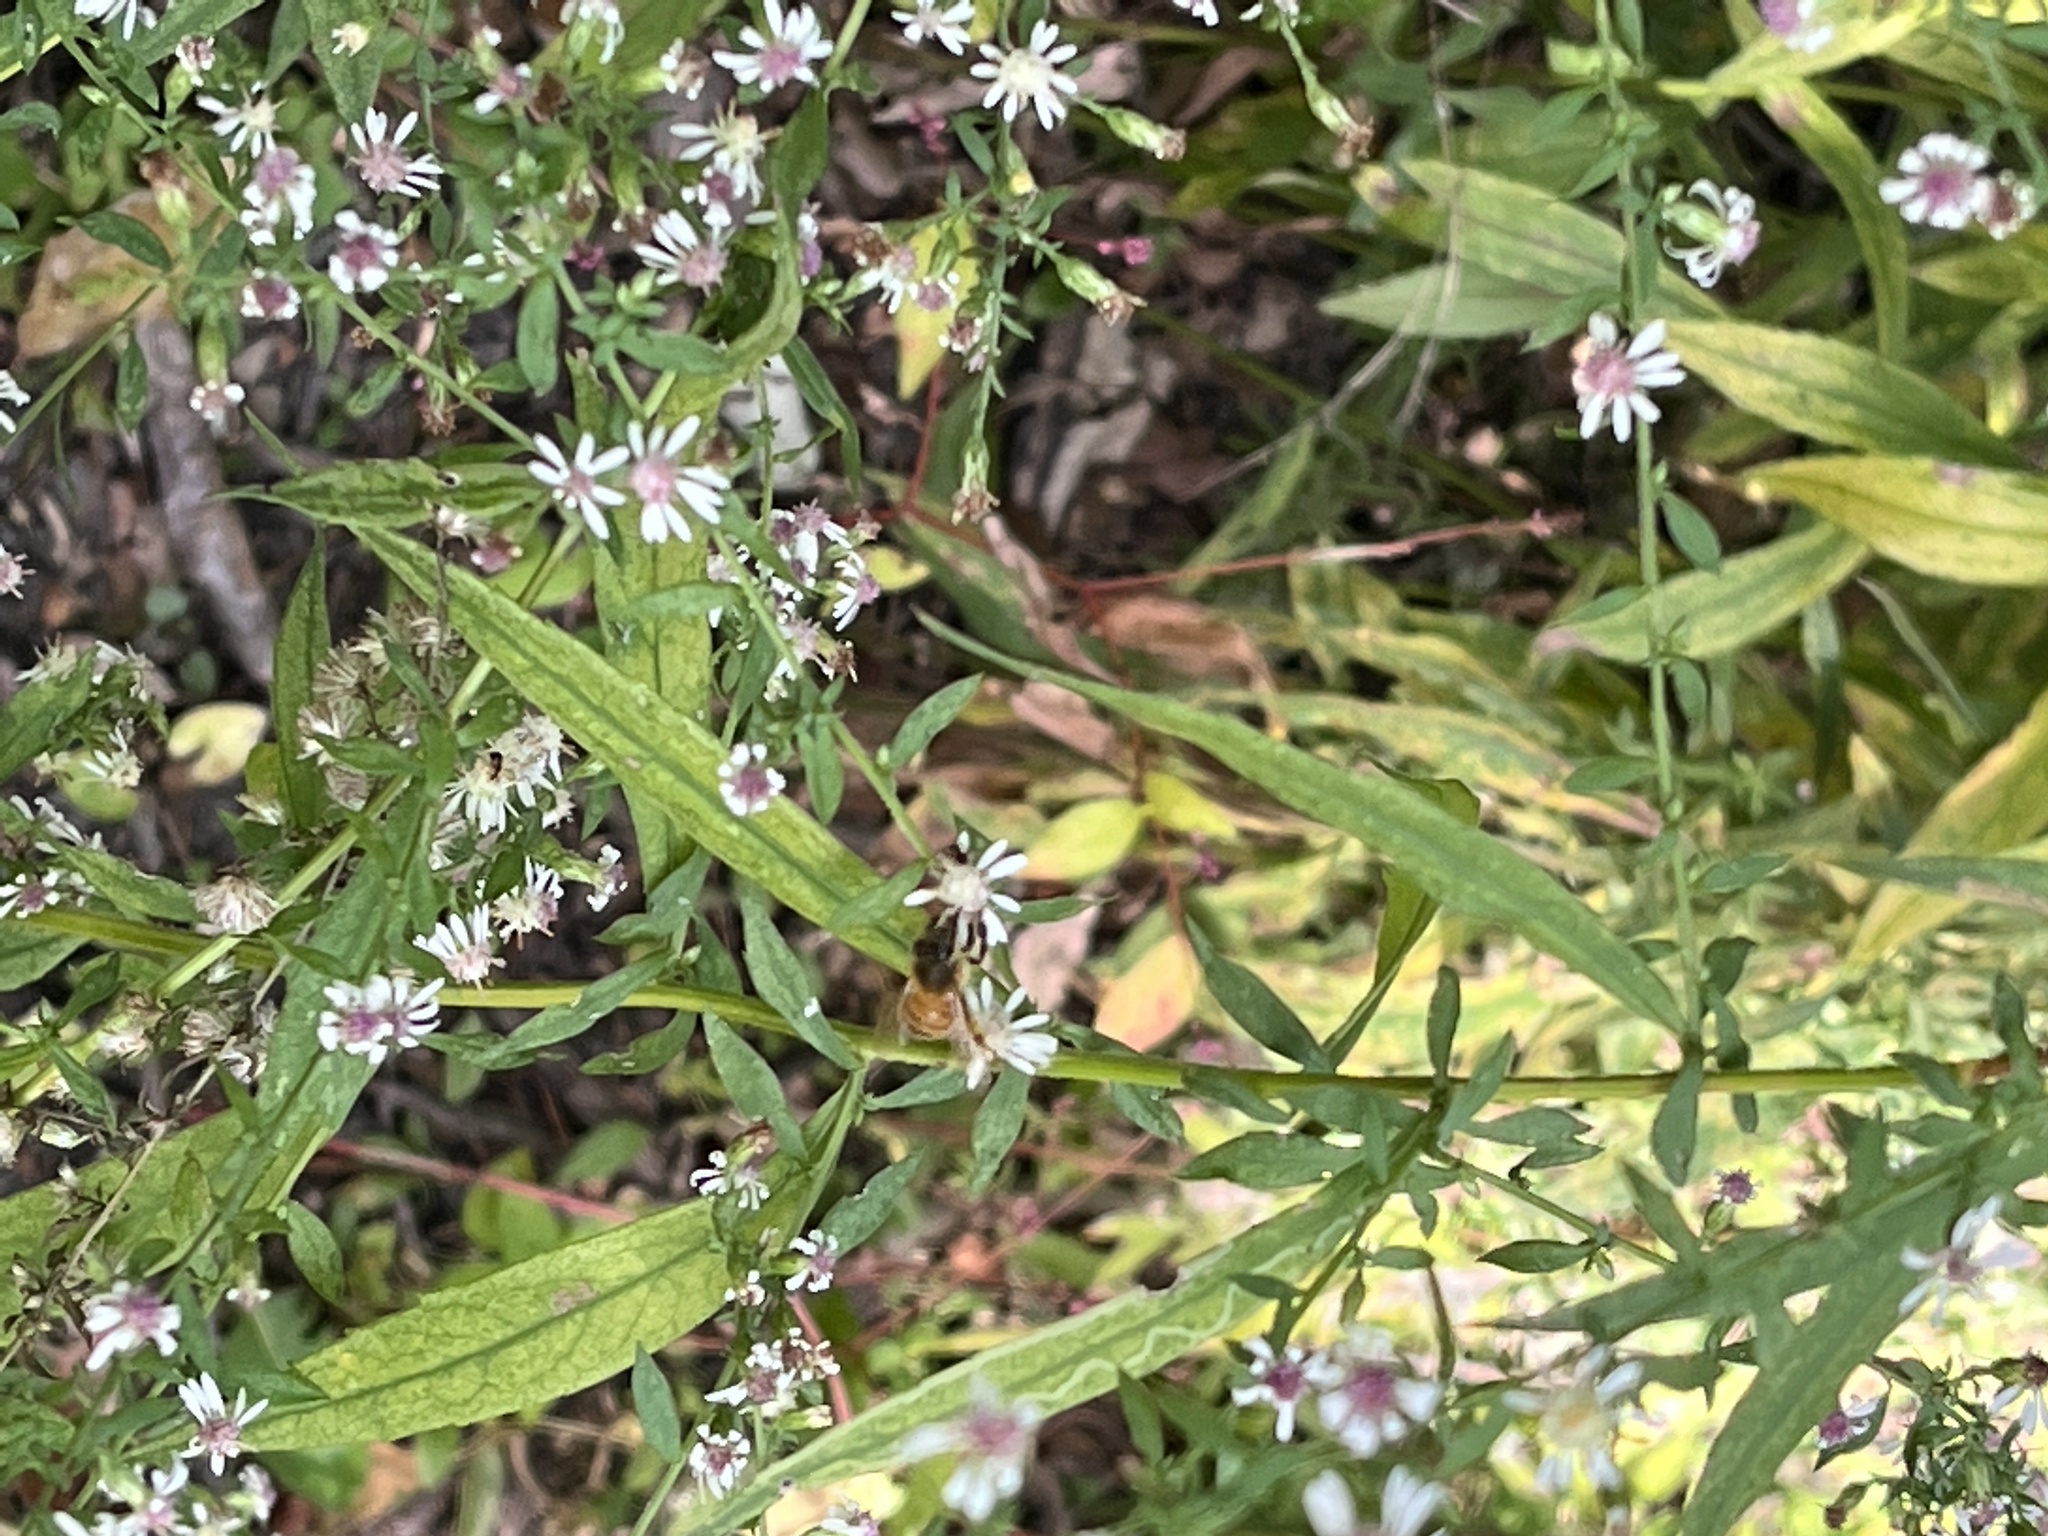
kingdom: Animalia
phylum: Arthropoda
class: Insecta
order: Hymenoptera
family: Apidae
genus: Apis
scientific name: Apis mellifera
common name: Honey bee
